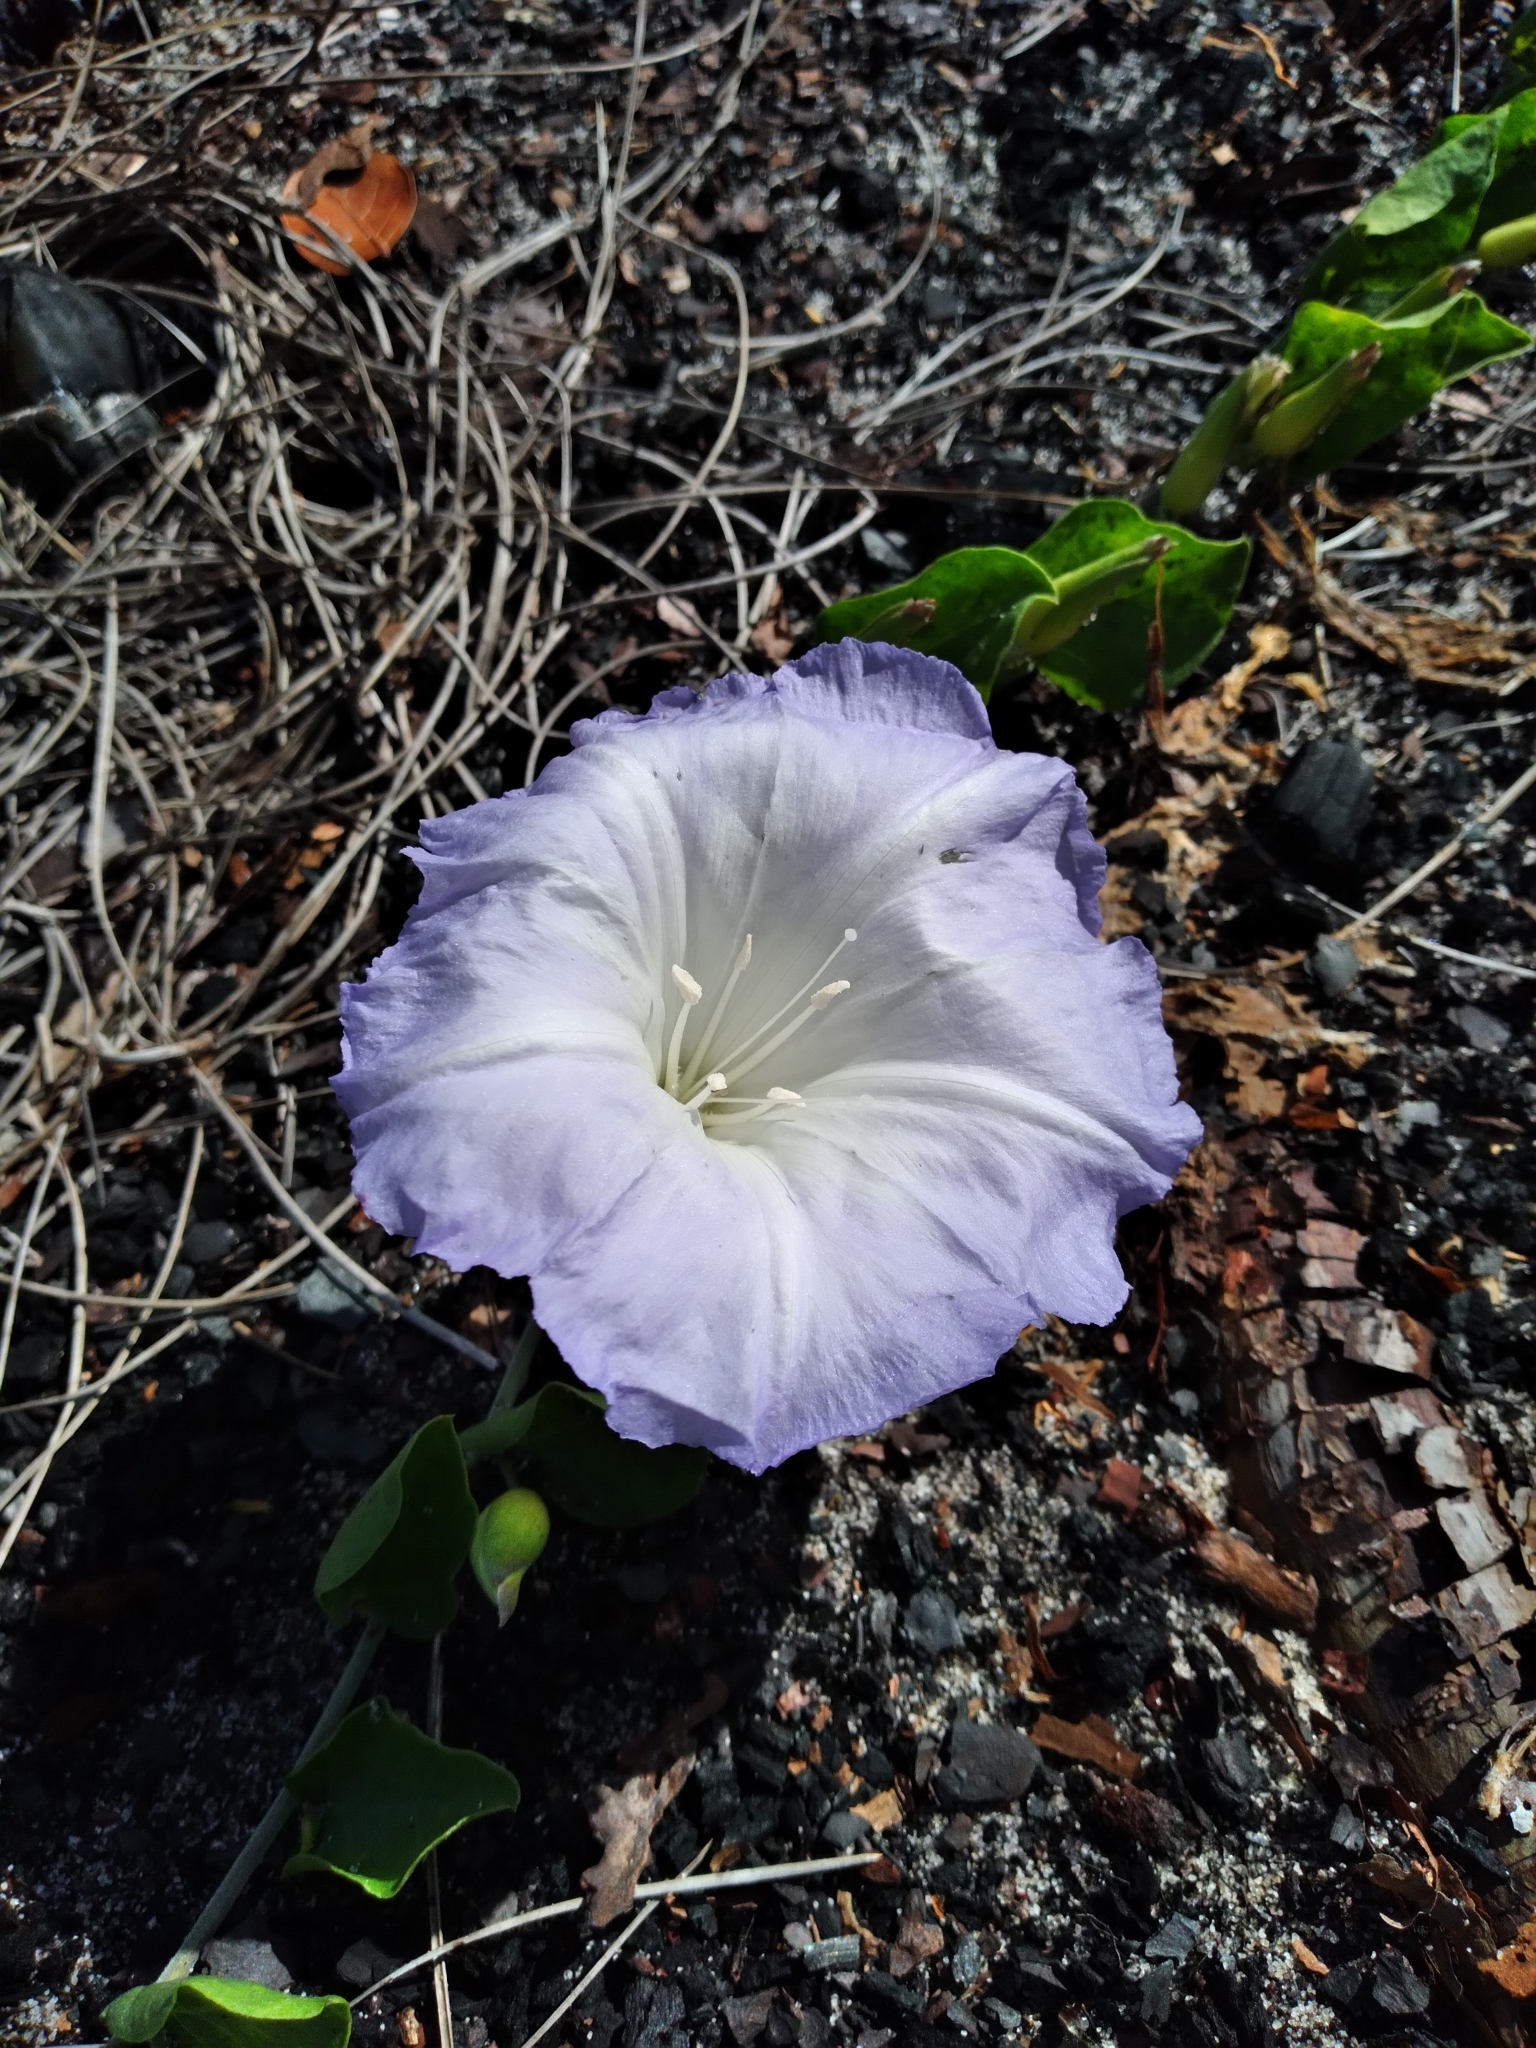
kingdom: Plantae
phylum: Tracheophyta
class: Magnoliopsida
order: Solanales
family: Convolvulaceae
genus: Bonamia
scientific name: Bonamia grandiflora
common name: Florida bonamia
